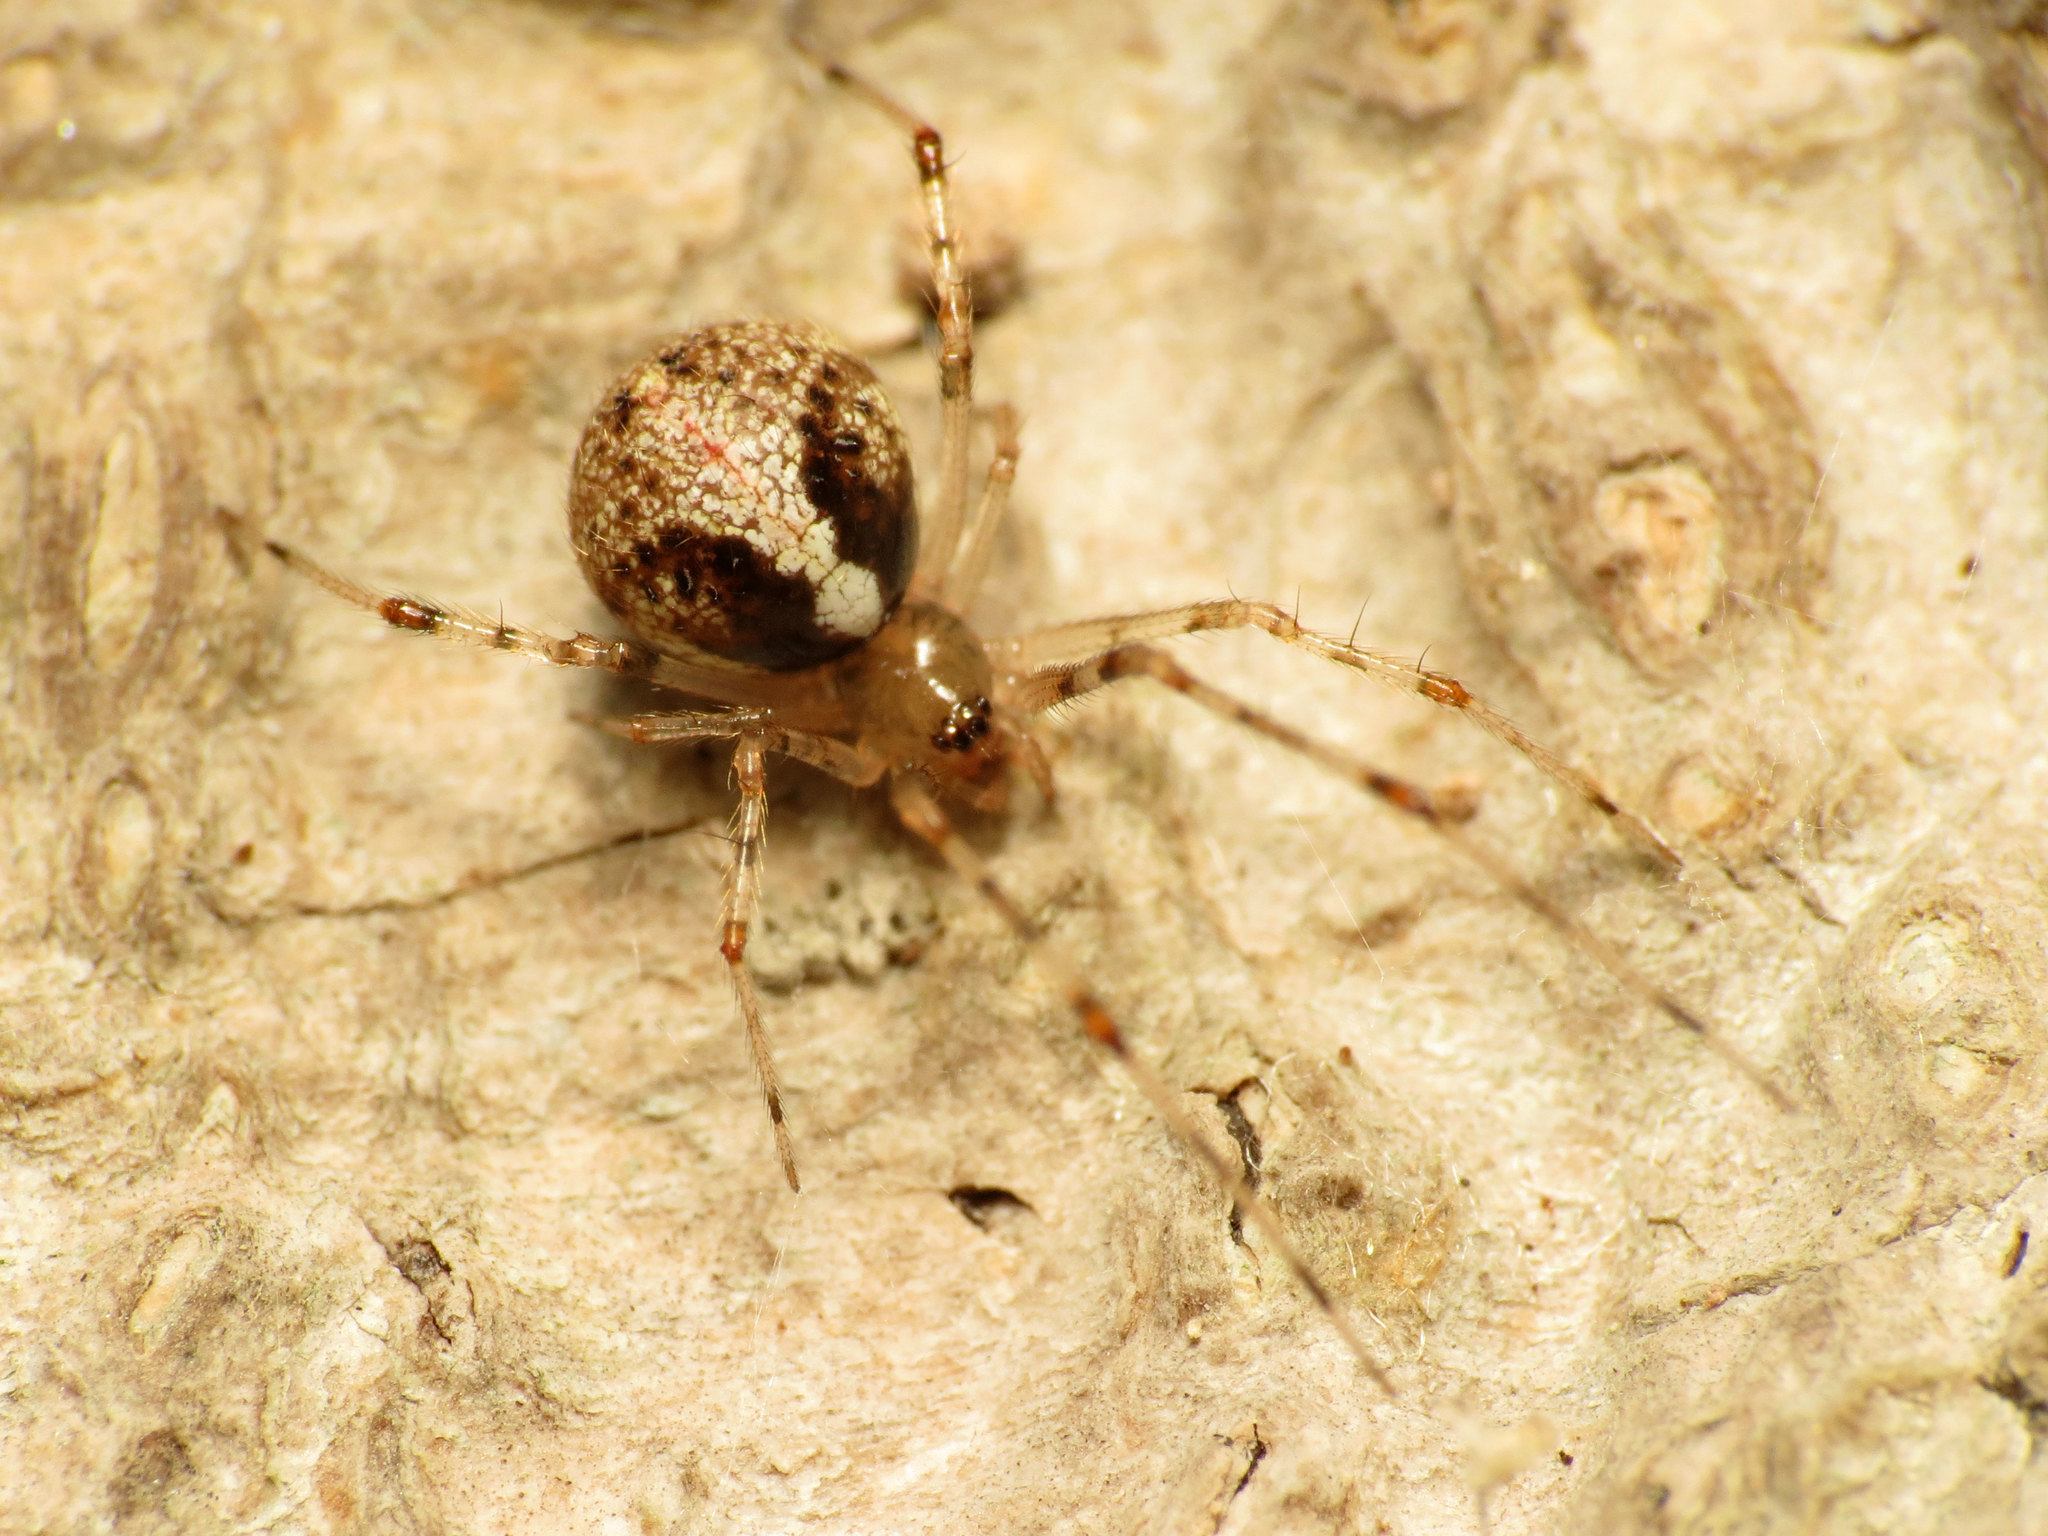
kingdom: Animalia
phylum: Arthropoda
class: Arachnida
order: Araneae
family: Theridiidae
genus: Yunohamella
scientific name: Yunohamella lyrica
